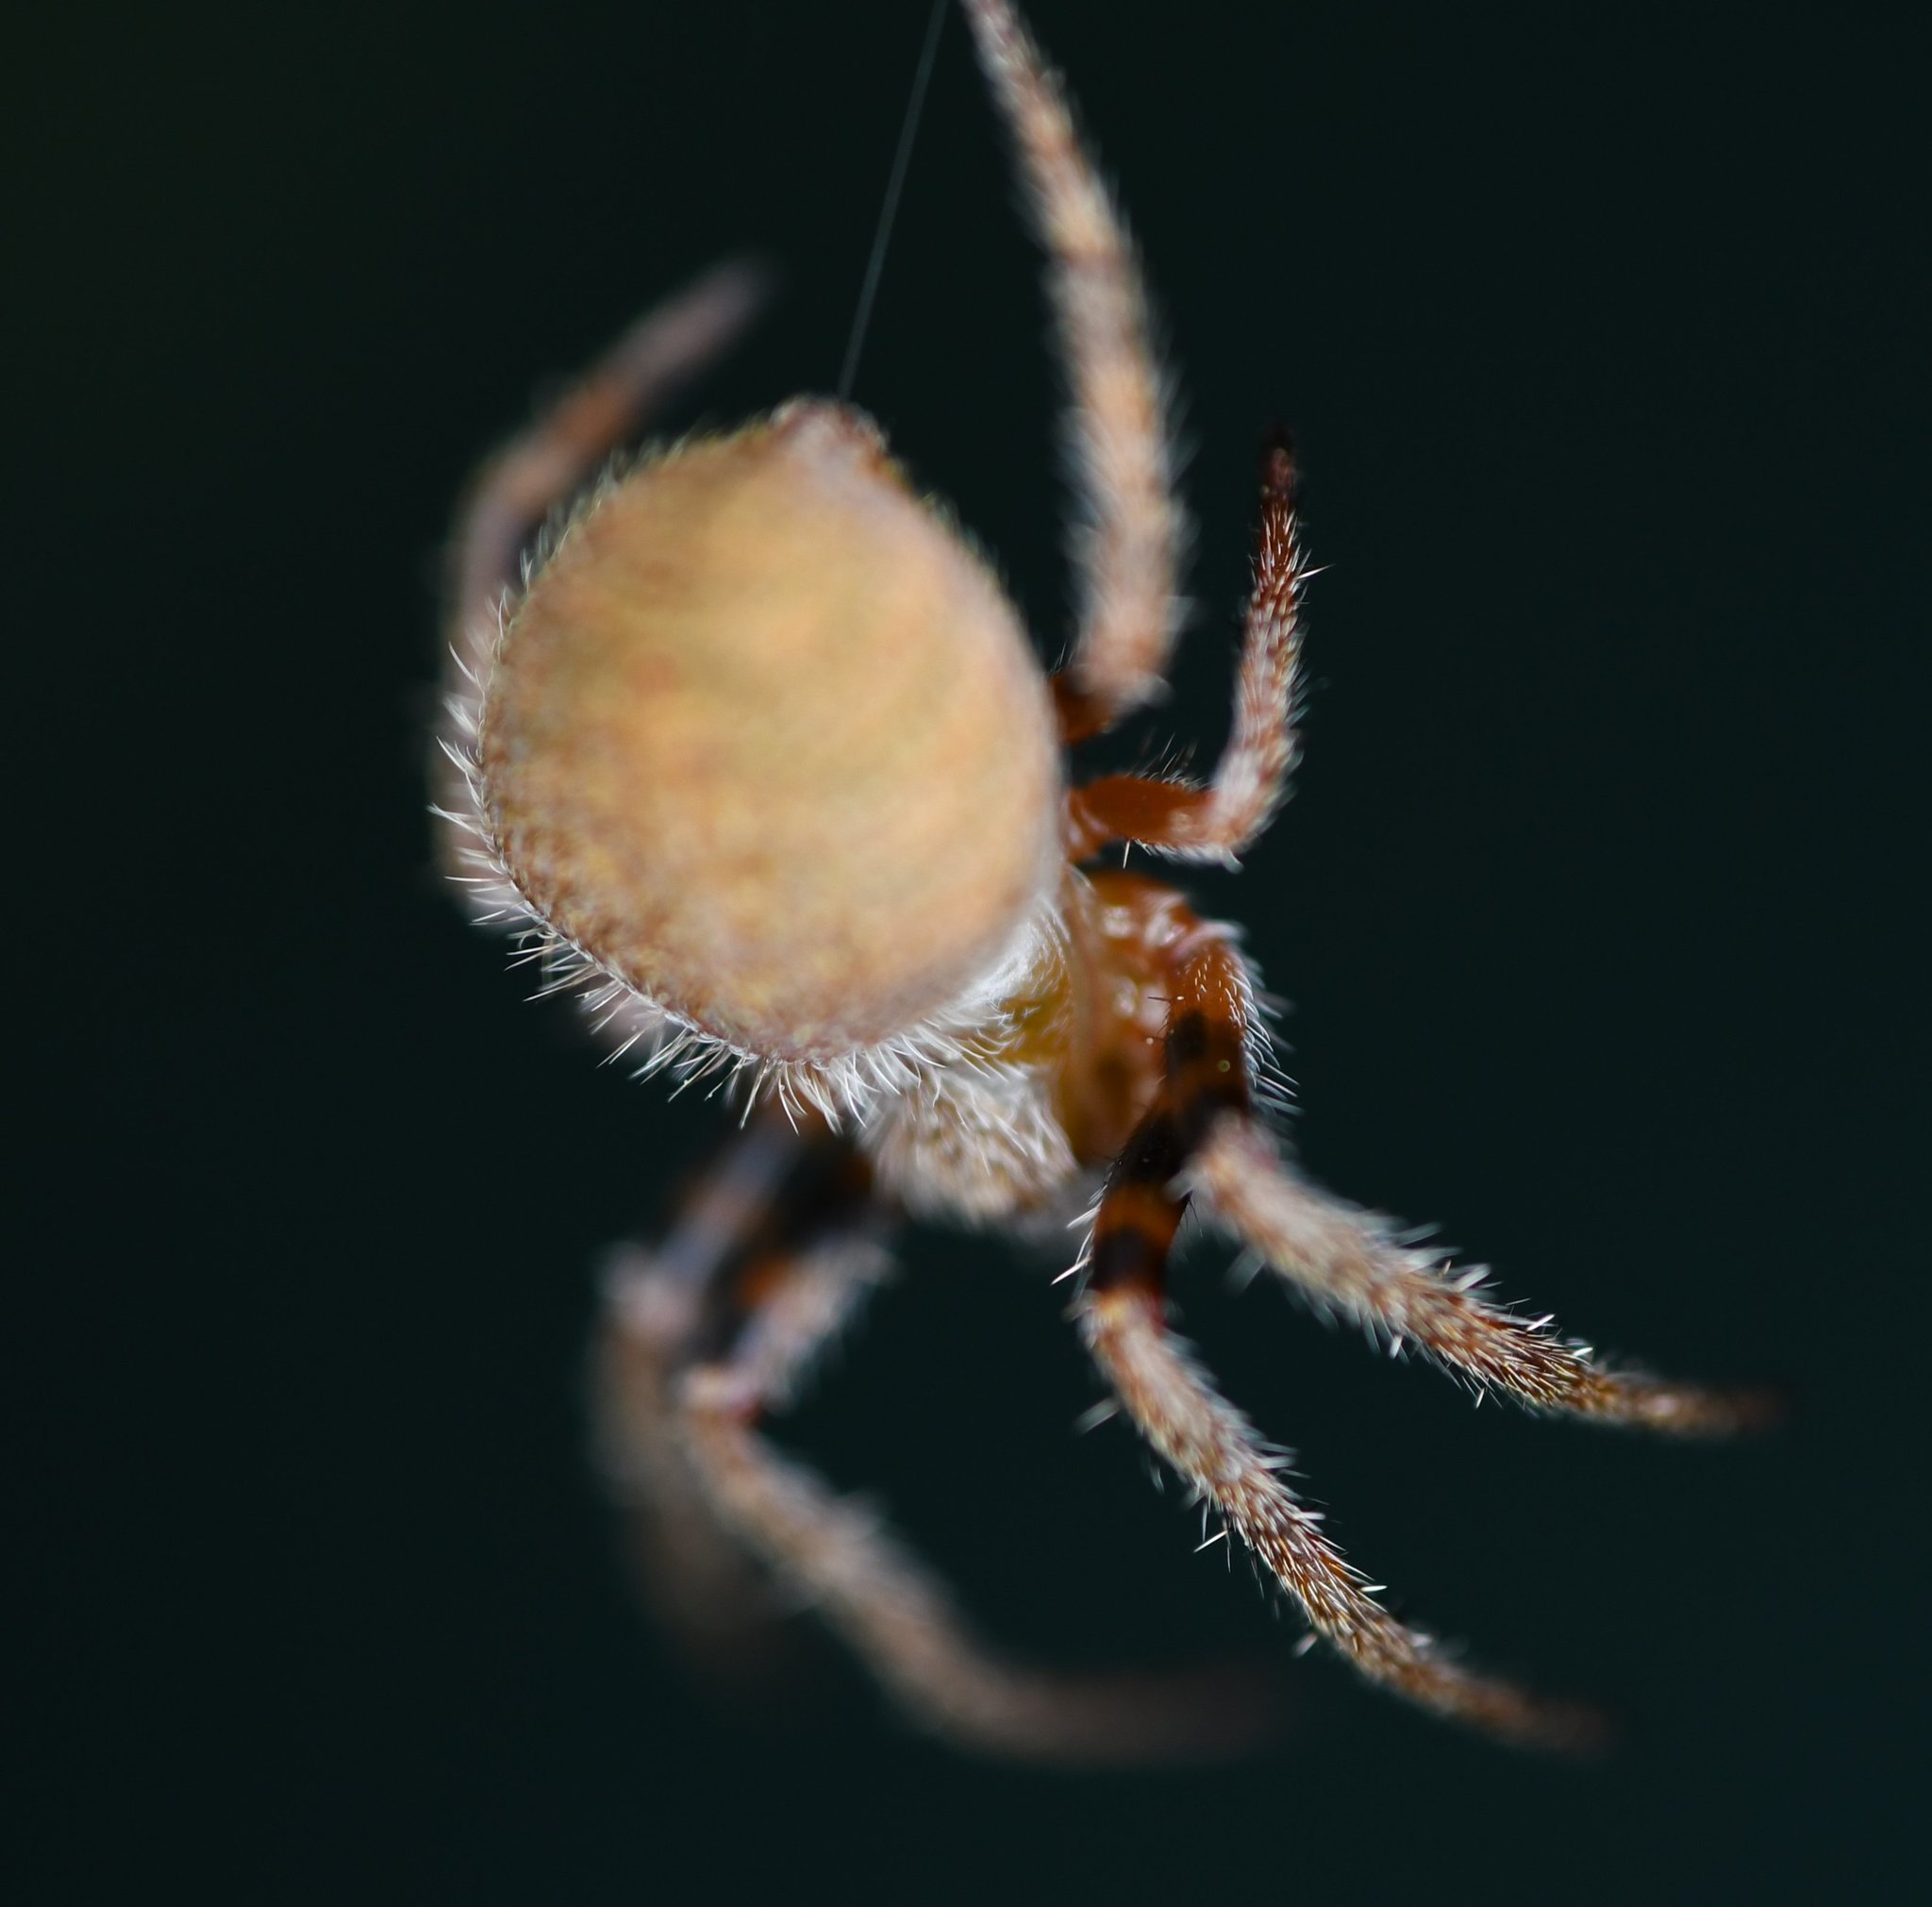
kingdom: Animalia
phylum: Arthropoda
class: Arachnida
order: Araneae
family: Araneidae
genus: Eriophora
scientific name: Eriophora ravilla
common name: Orb weavers
